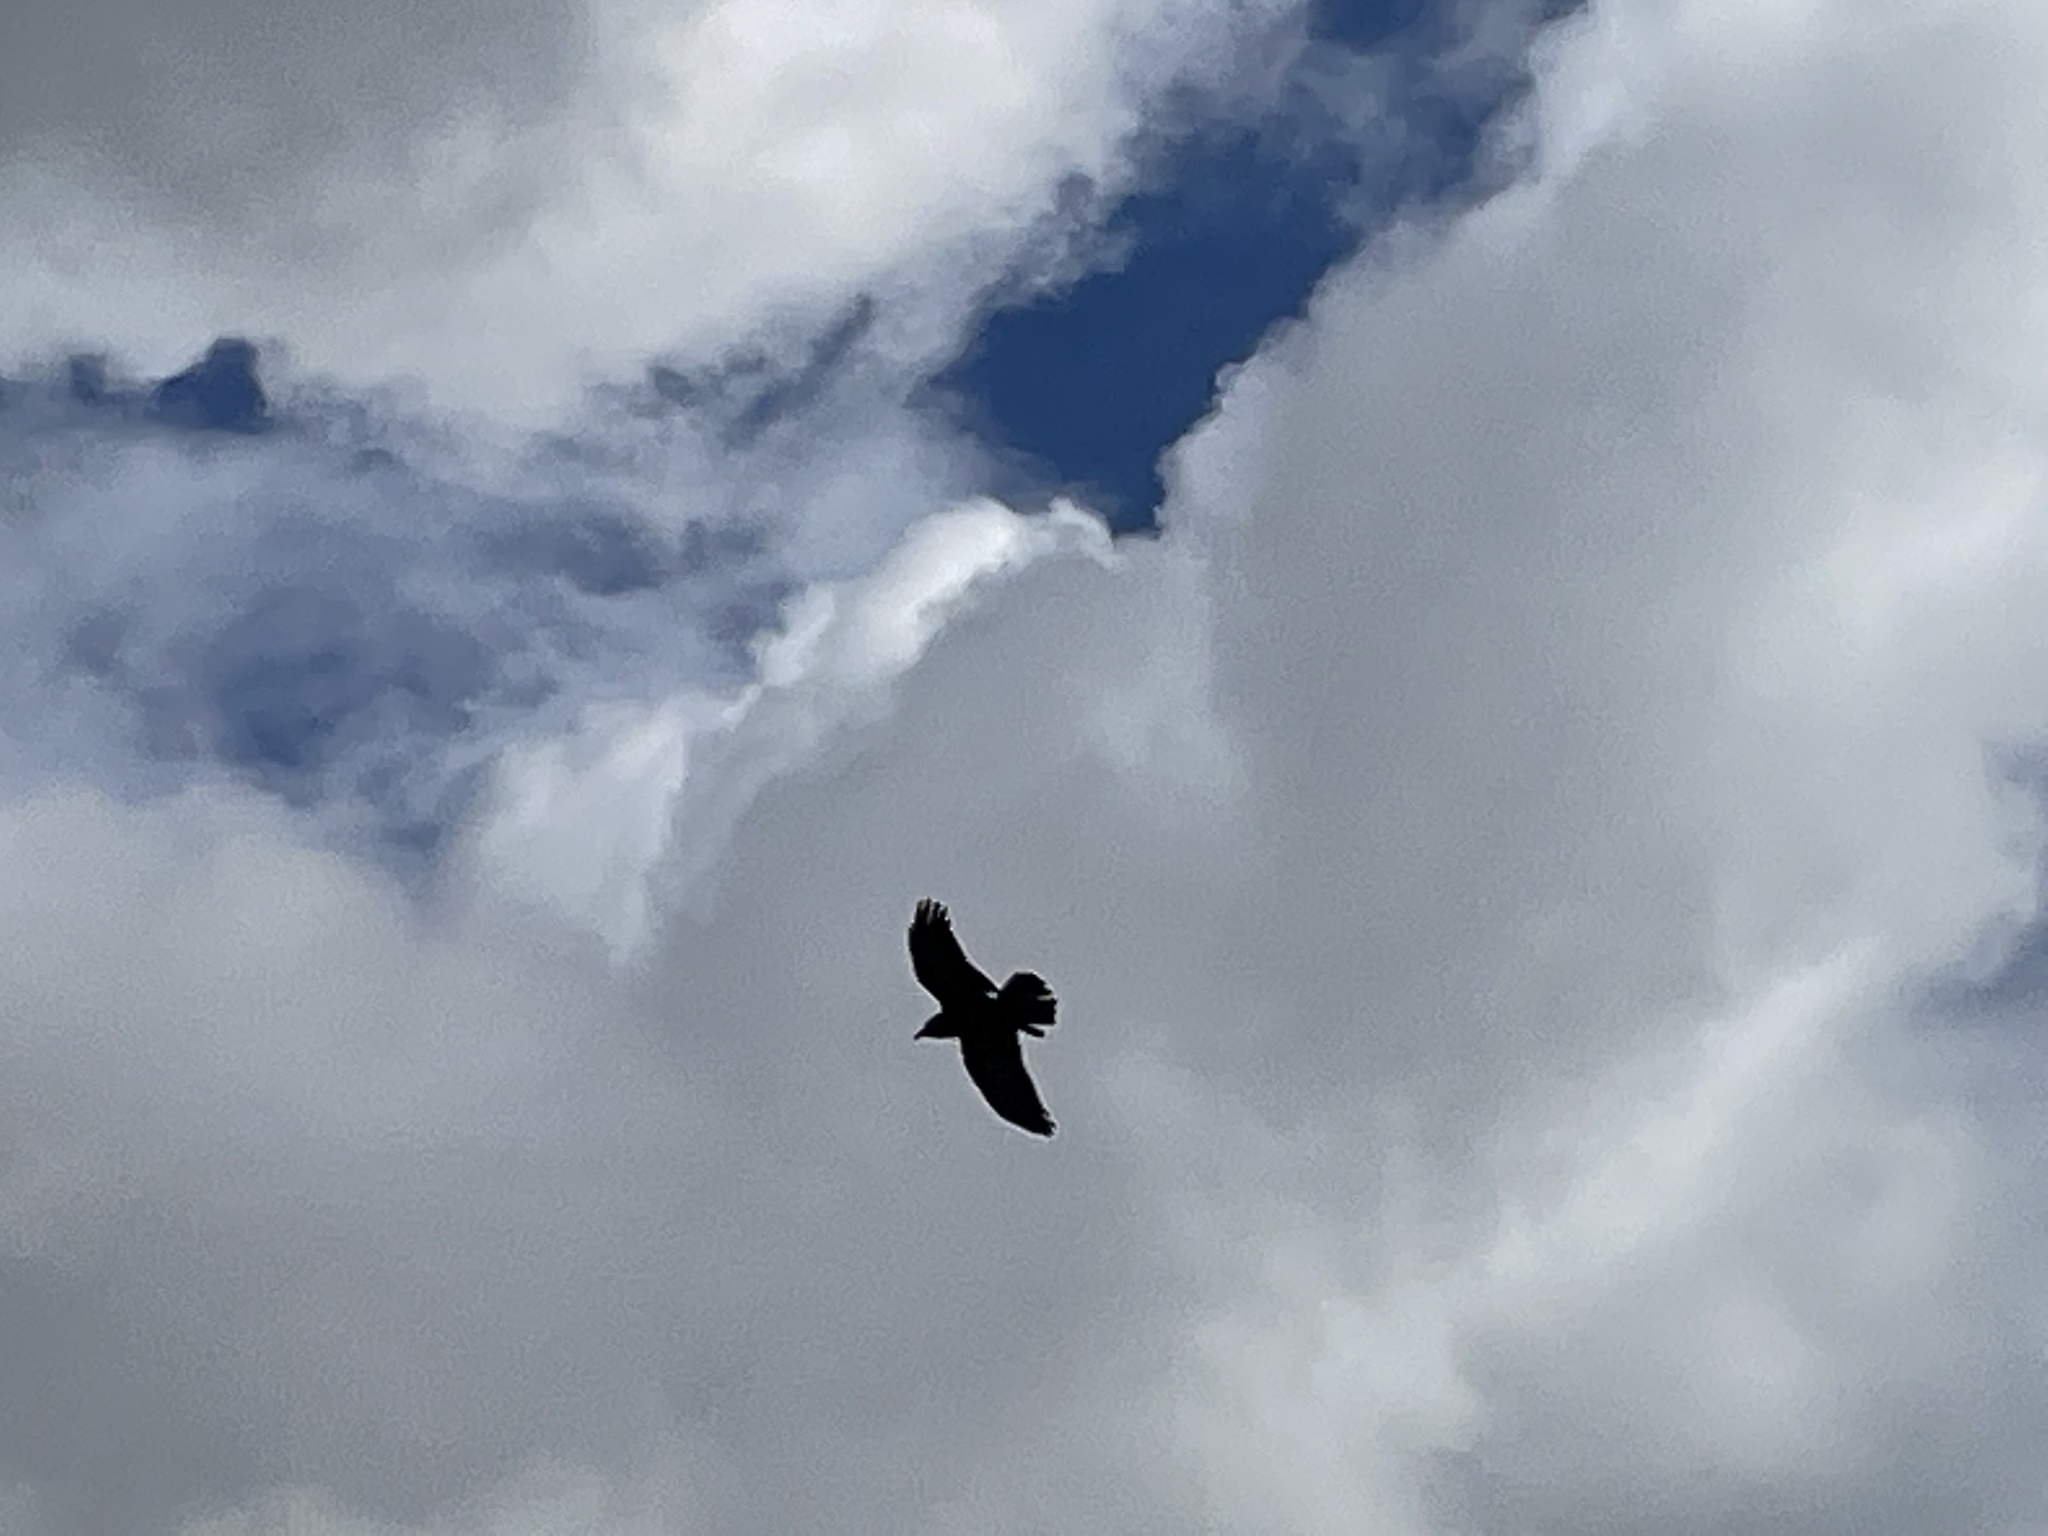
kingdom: Animalia
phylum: Chordata
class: Aves
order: Passeriformes
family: Corvidae
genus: Corvus
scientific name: Corvus corax
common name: Common raven
